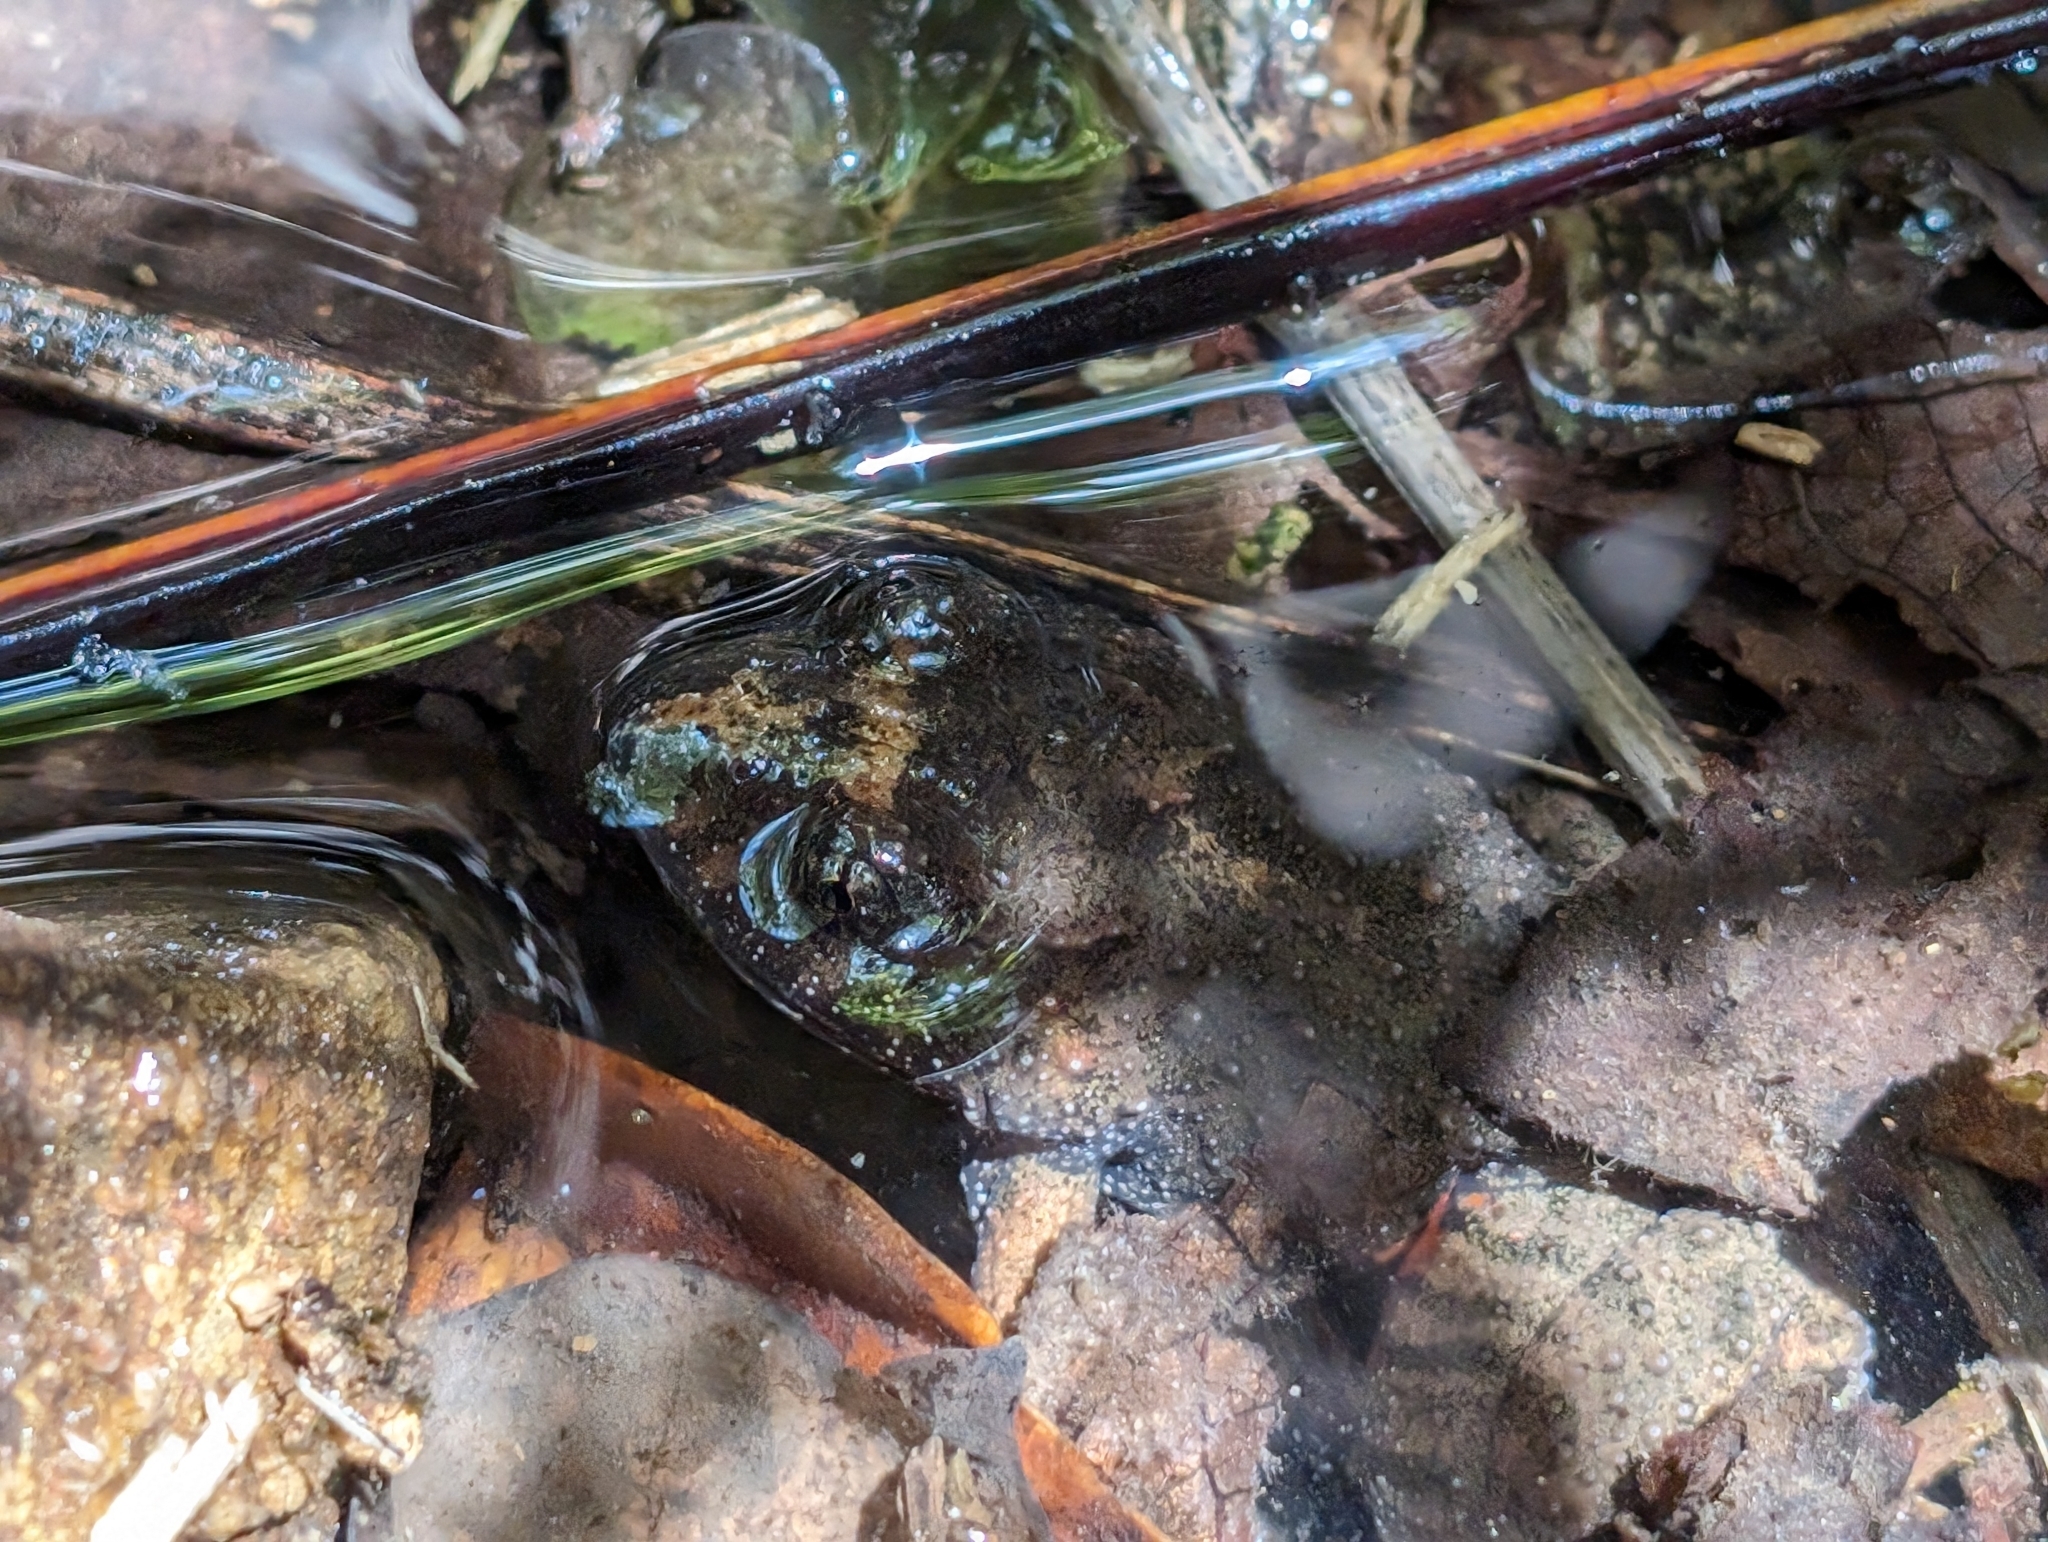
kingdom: Animalia
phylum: Chordata
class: Amphibia
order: Anura
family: Limnodynastidae
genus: Adelotus
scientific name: Adelotus brevis
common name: Tusked frog
